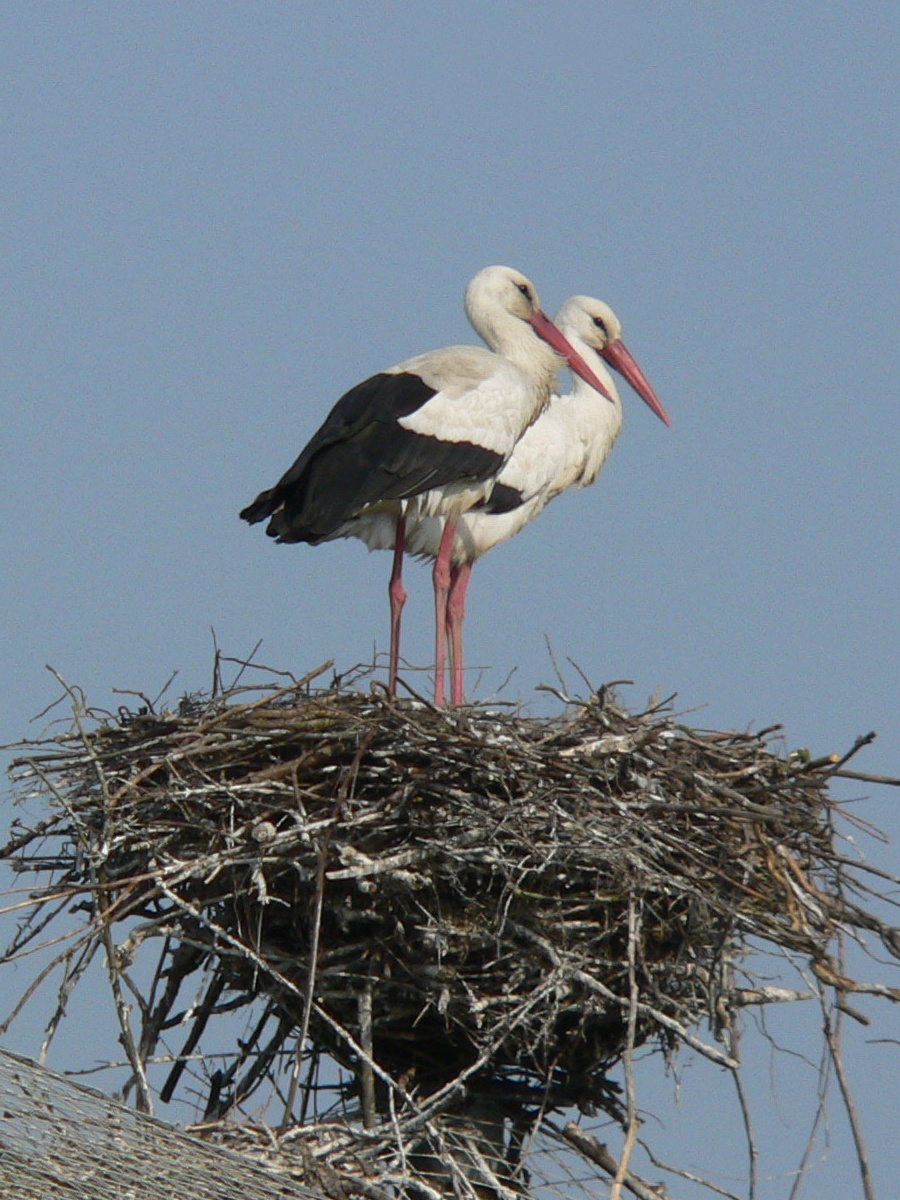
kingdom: Animalia
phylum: Chordata
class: Aves
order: Ciconiiformes
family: Ciconiidae
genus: Ciconia
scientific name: Ciconia ciconia
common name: White stork
